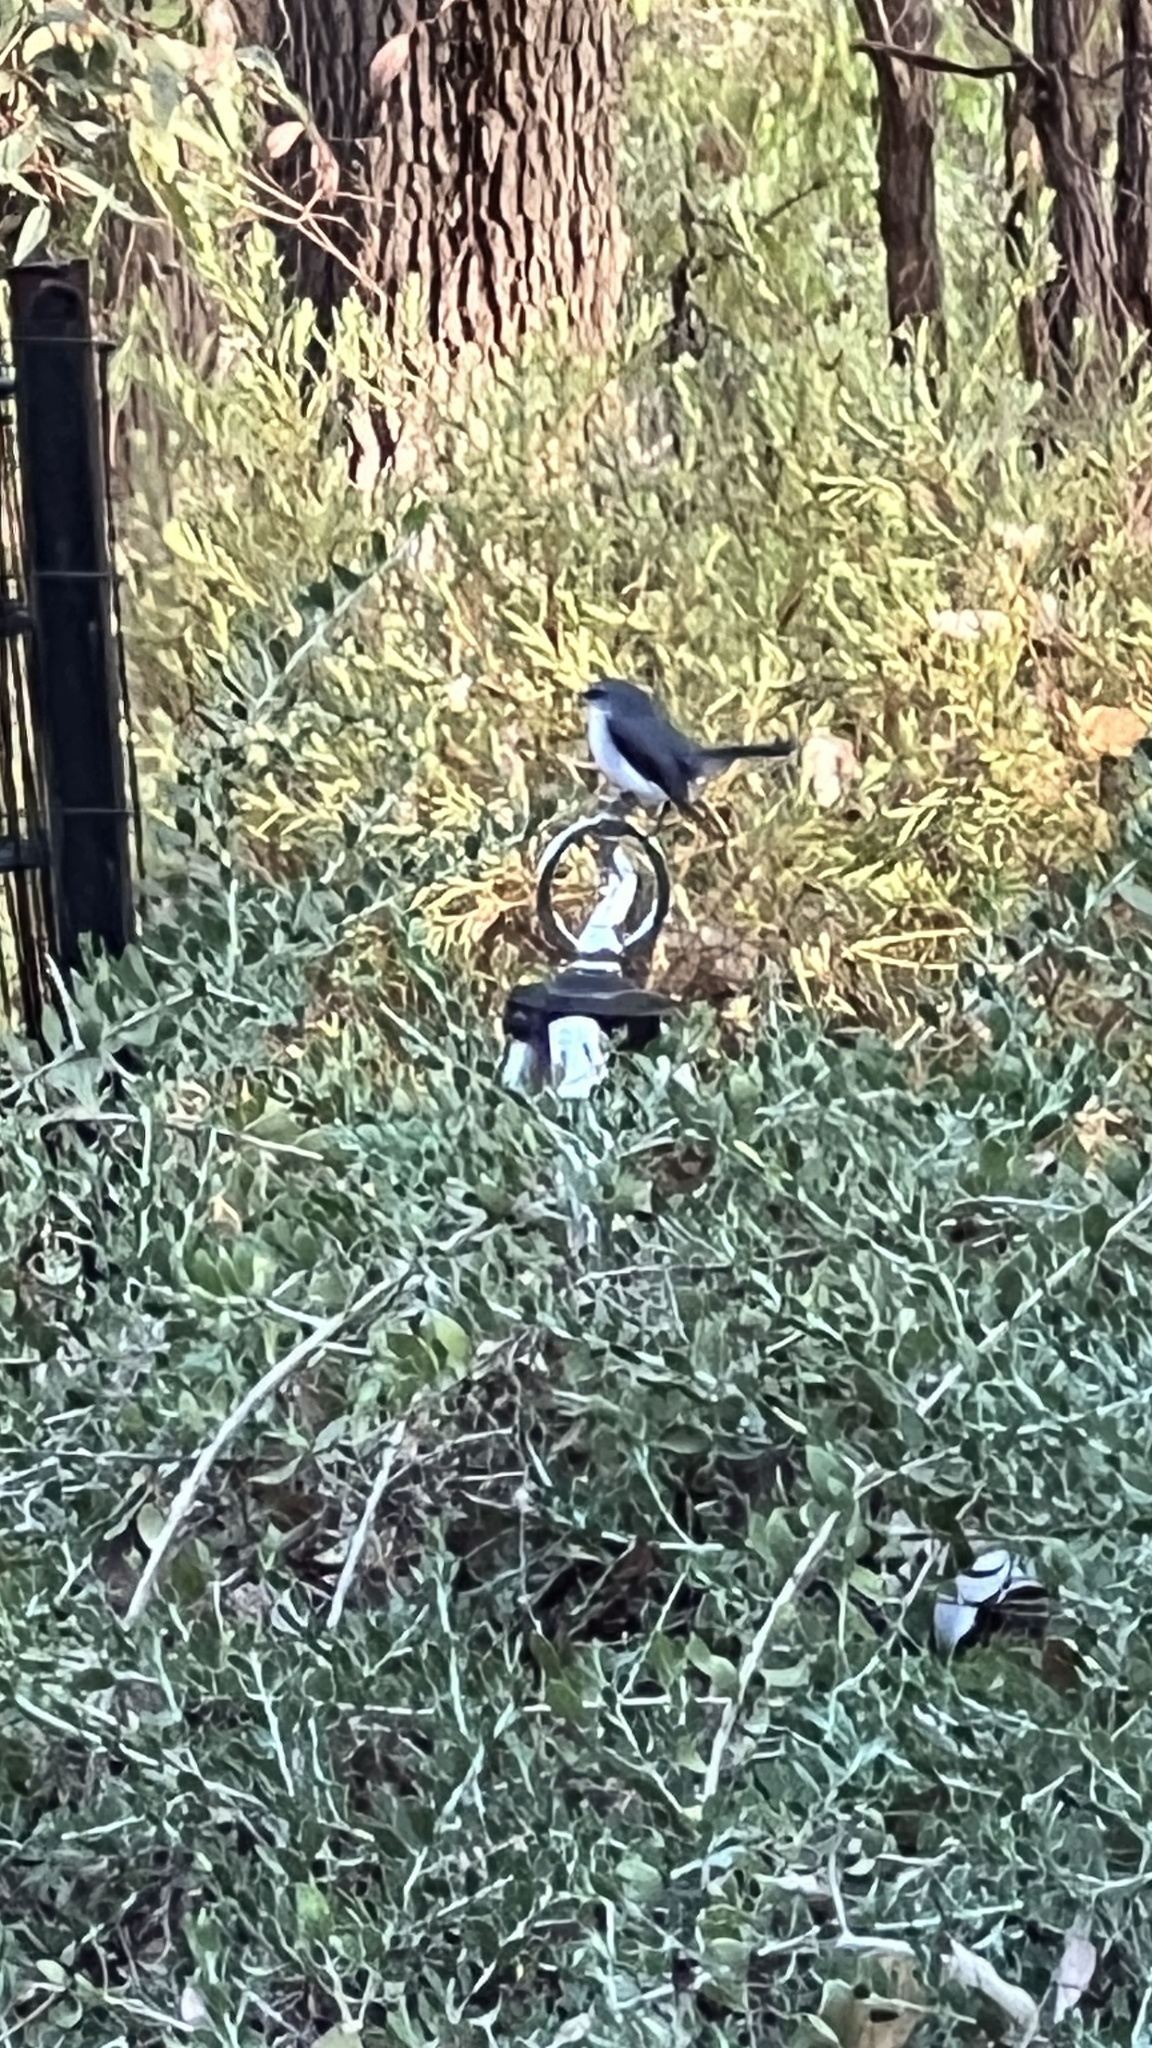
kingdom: Animalia
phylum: Chordata
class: Aves
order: Passeriformes
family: Petroicidae
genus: Eopsaltria
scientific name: Eopsaltria georgiana
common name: White-breasted robin
